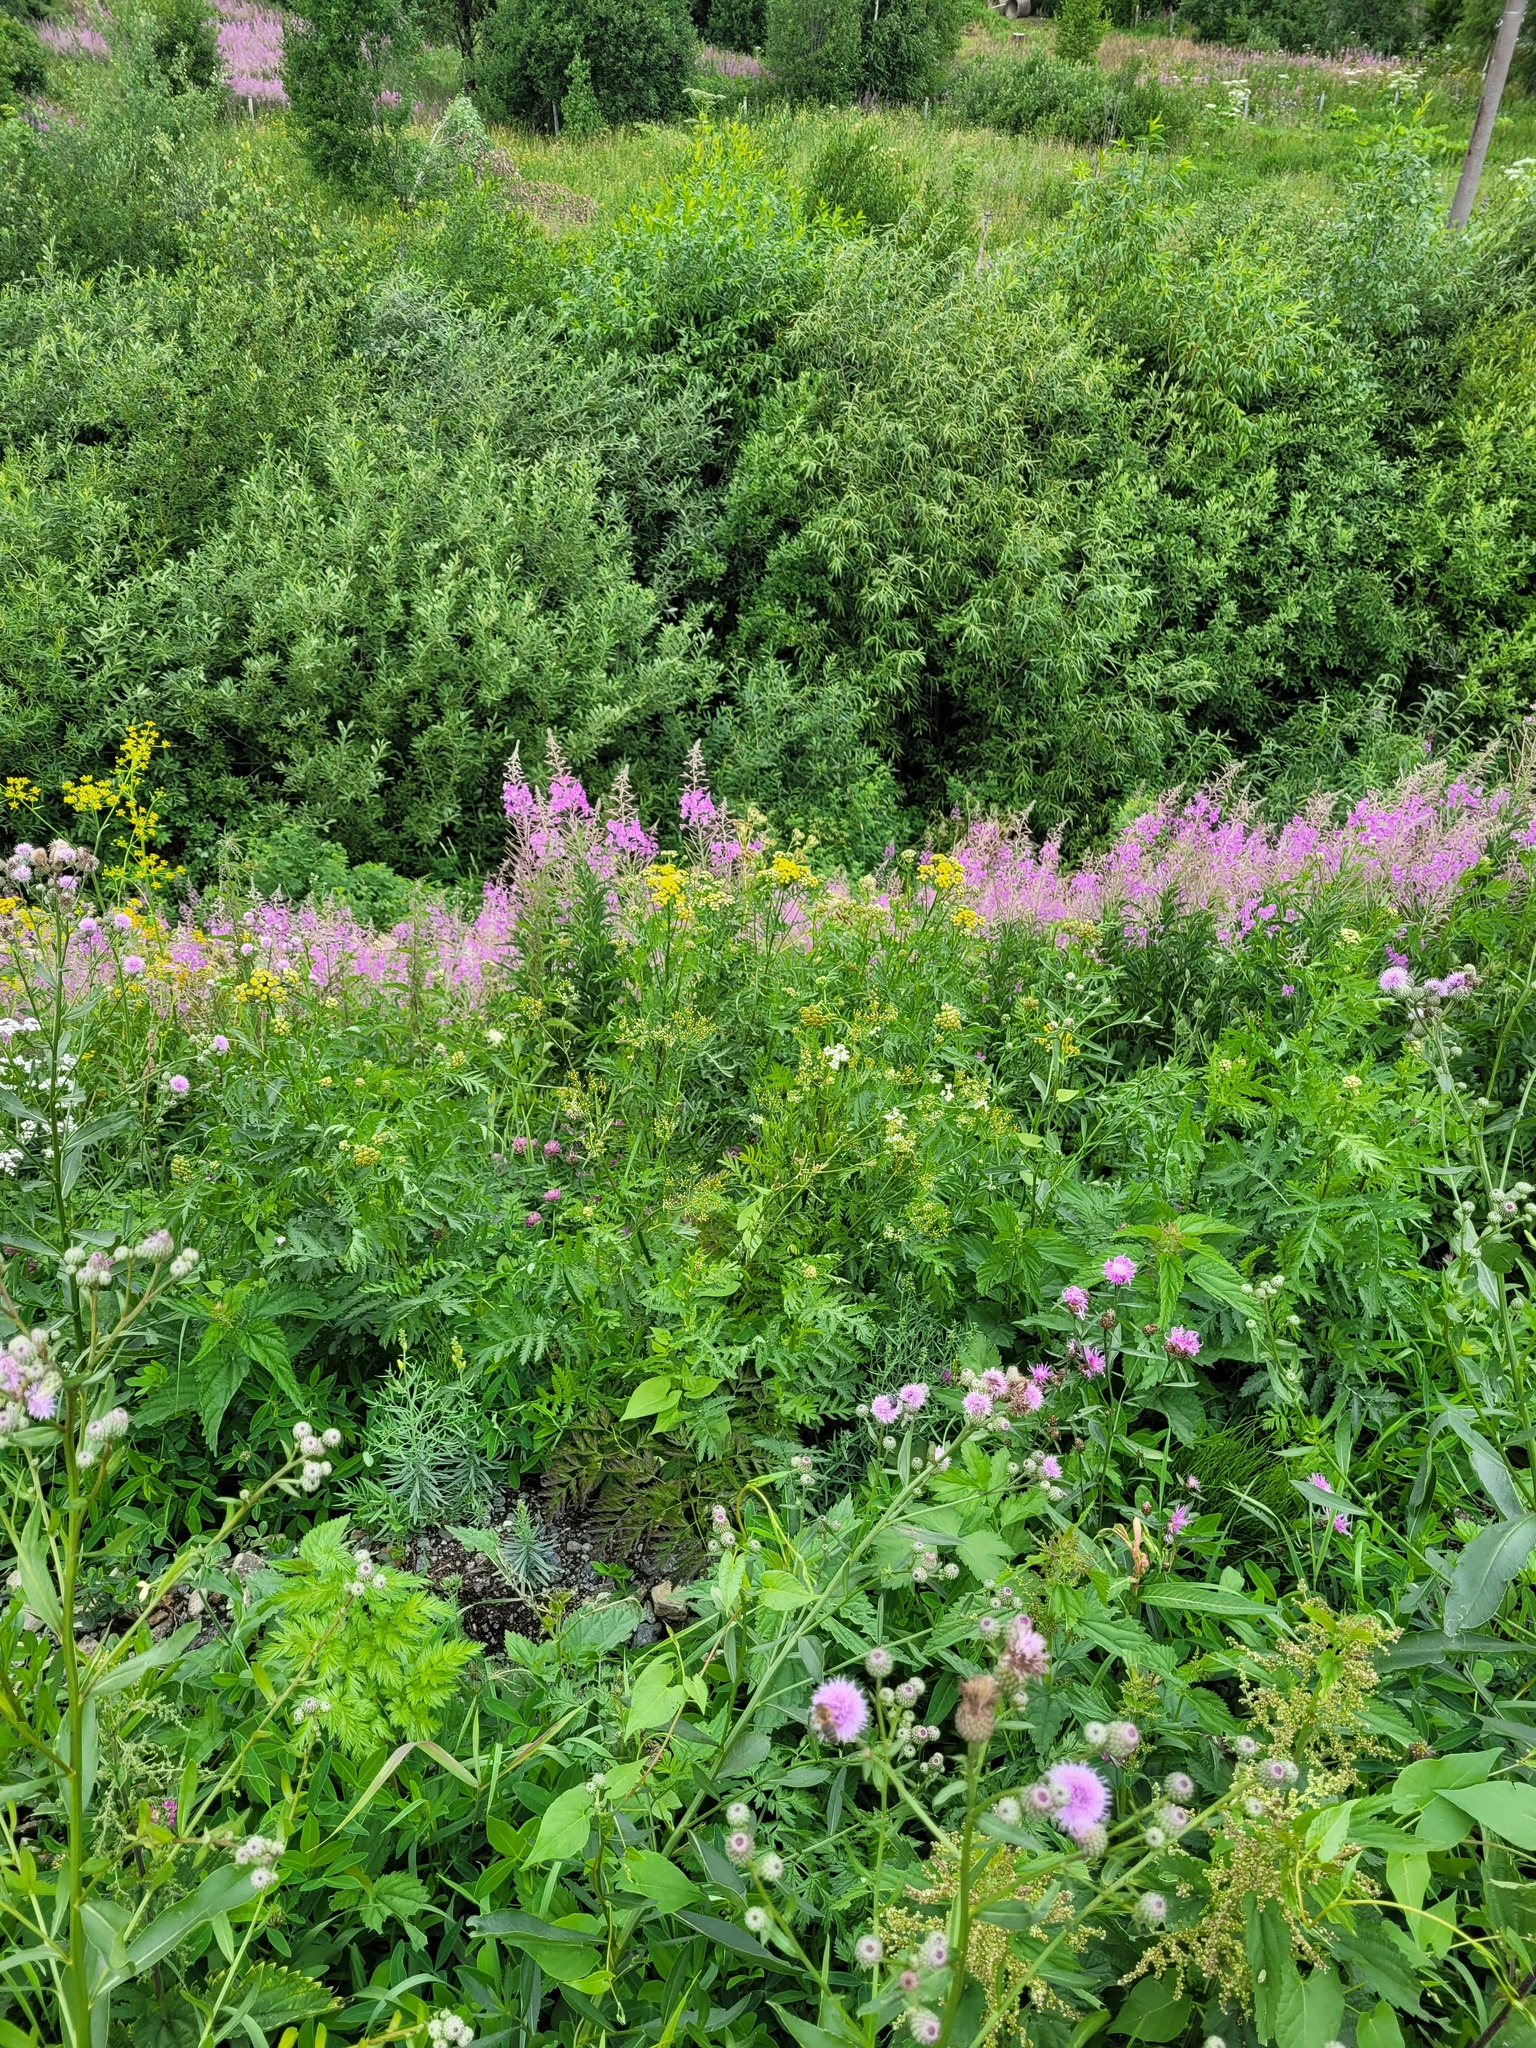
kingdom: Plantae
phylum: Tracheophyta
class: Magnoliopsida
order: Myrtales
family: Onagraceae
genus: Chamaenerion
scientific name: Chamaenerion angustifolium
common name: Fireweed
